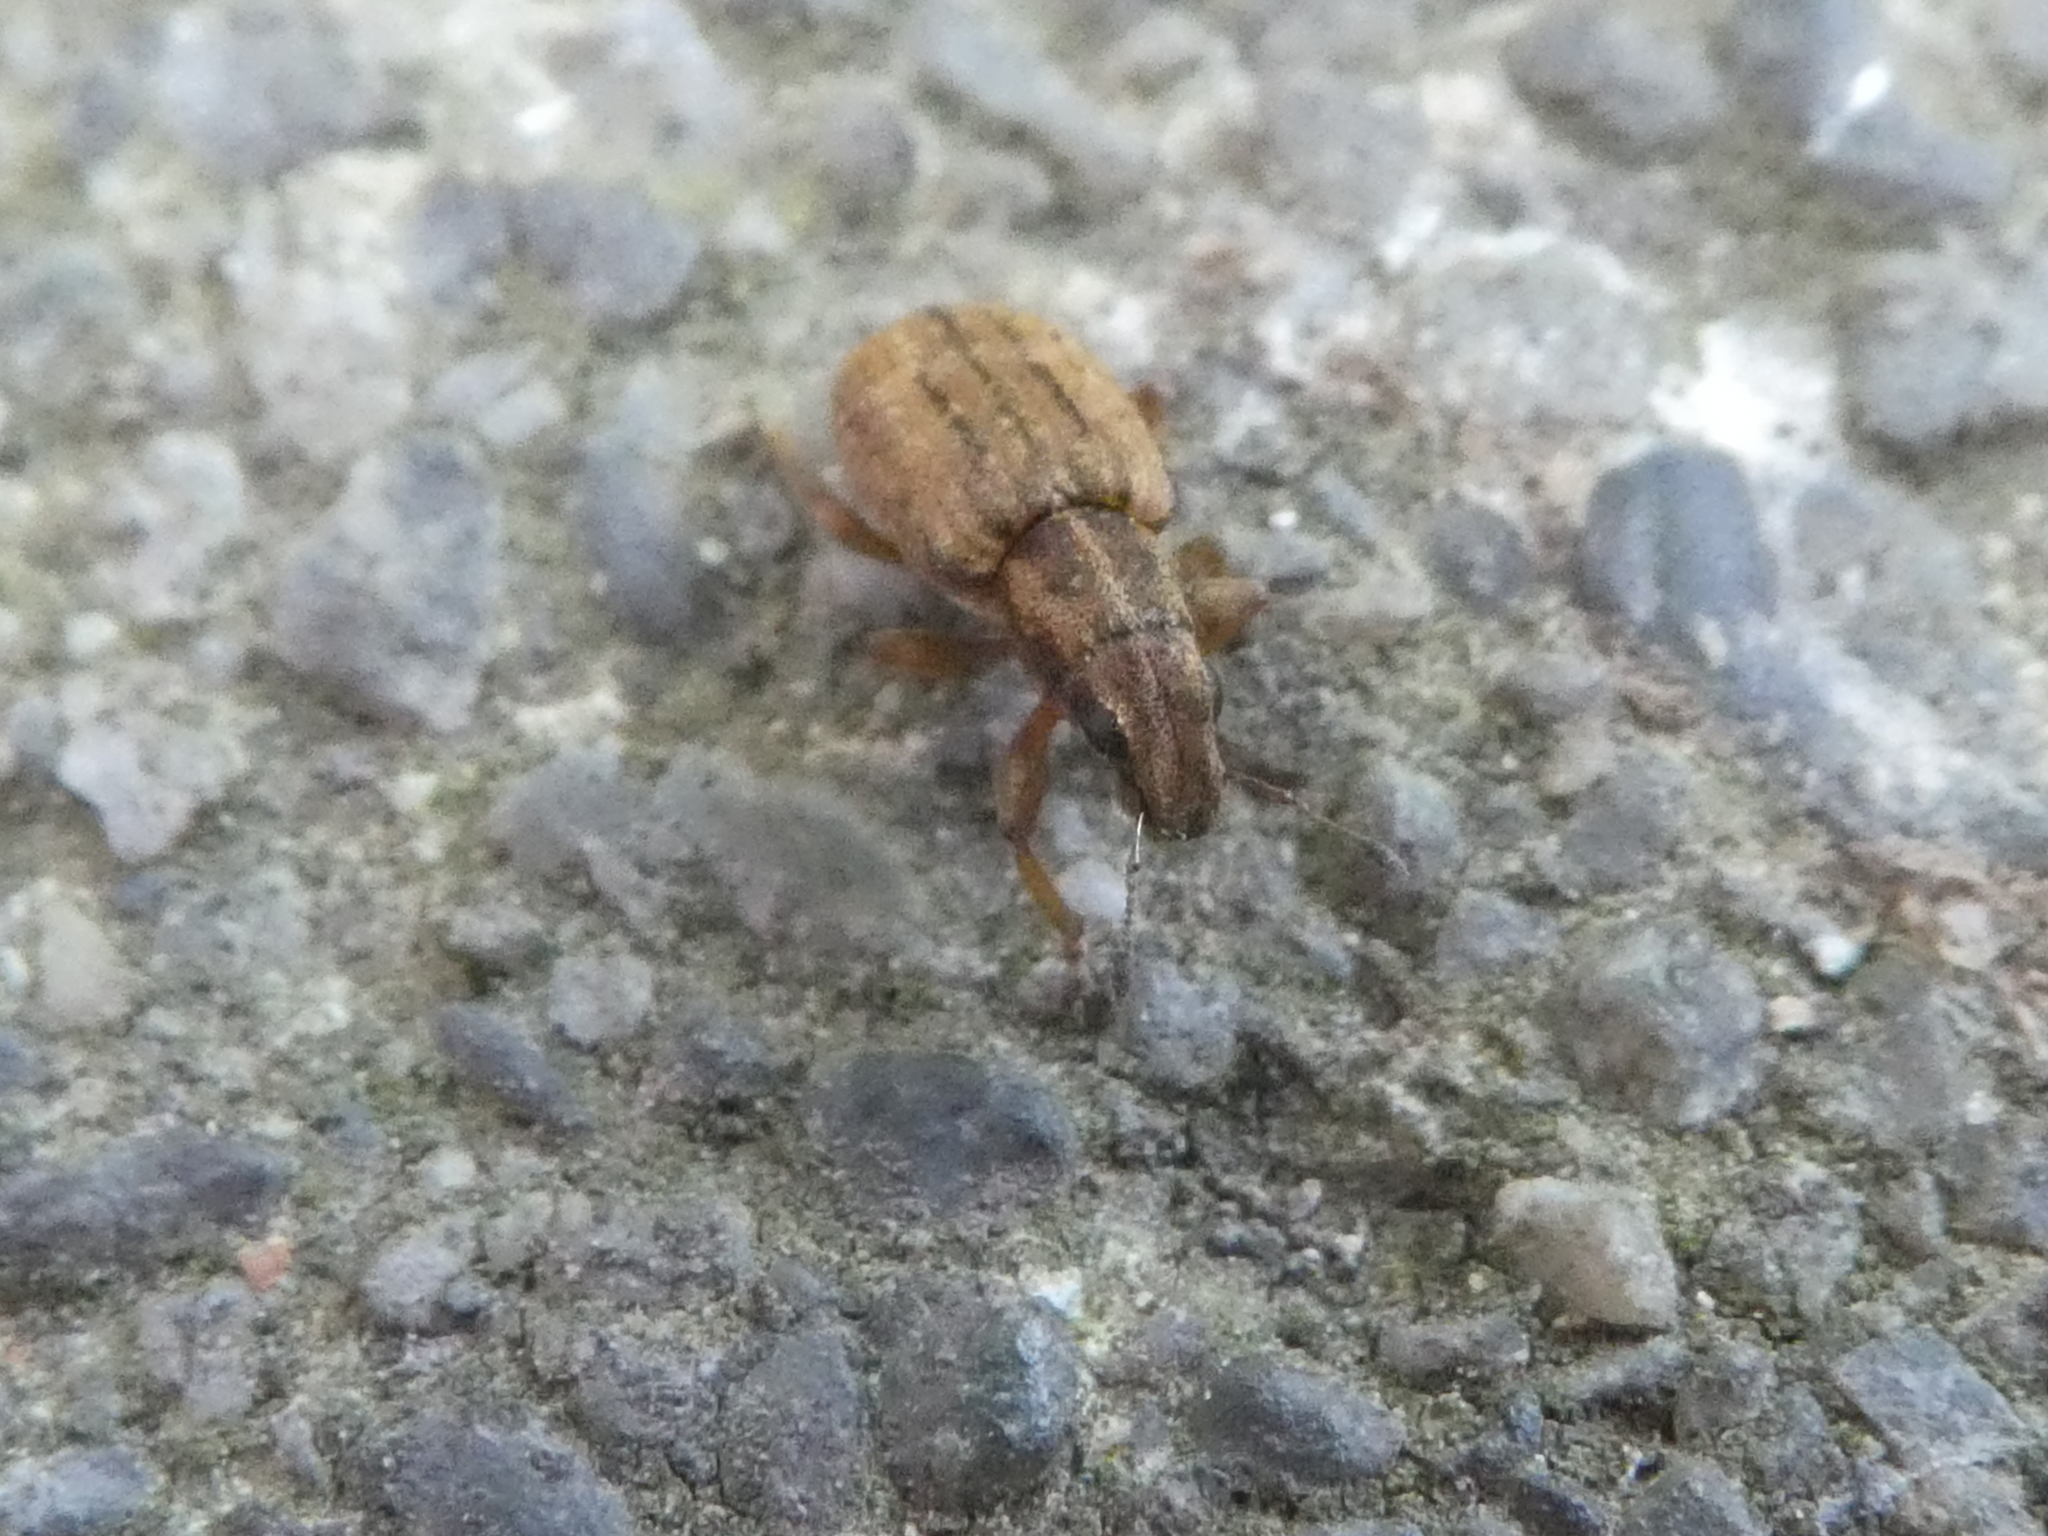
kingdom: Animalia
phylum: Arthropoda
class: Insecta
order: Coleoptera
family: Curculionidae
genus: Sitona
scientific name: Sitona obsoletus
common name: Weevil
